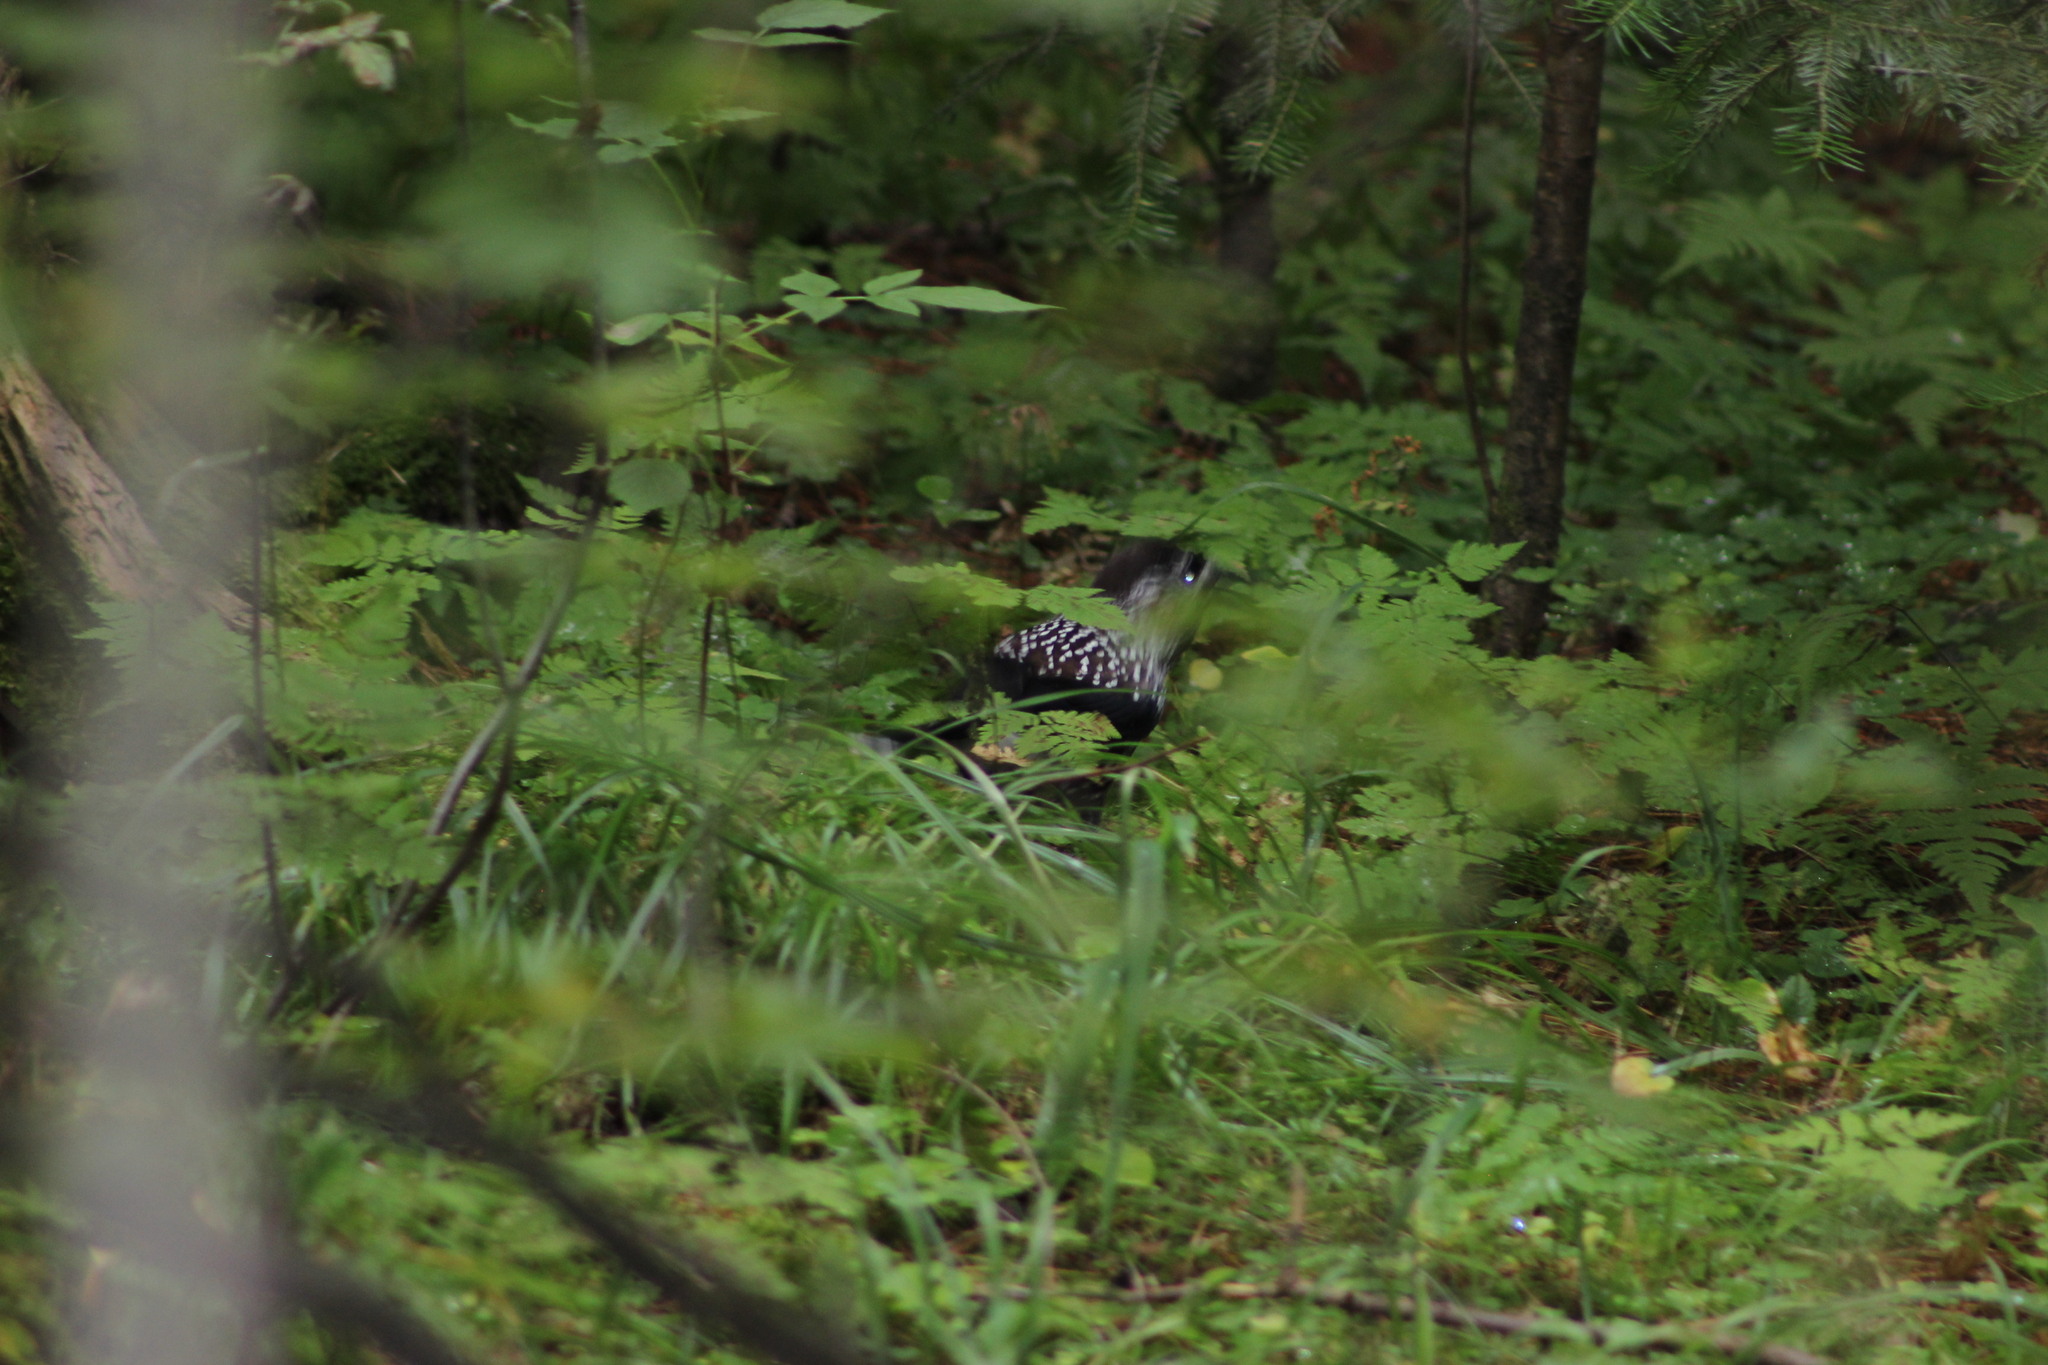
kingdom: Animalia
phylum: Chordata
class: Aves
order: Passeriformes
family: Corvidae
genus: Nucifraga
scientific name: Nucifraga caryocatactes
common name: Spotted nutcracker
